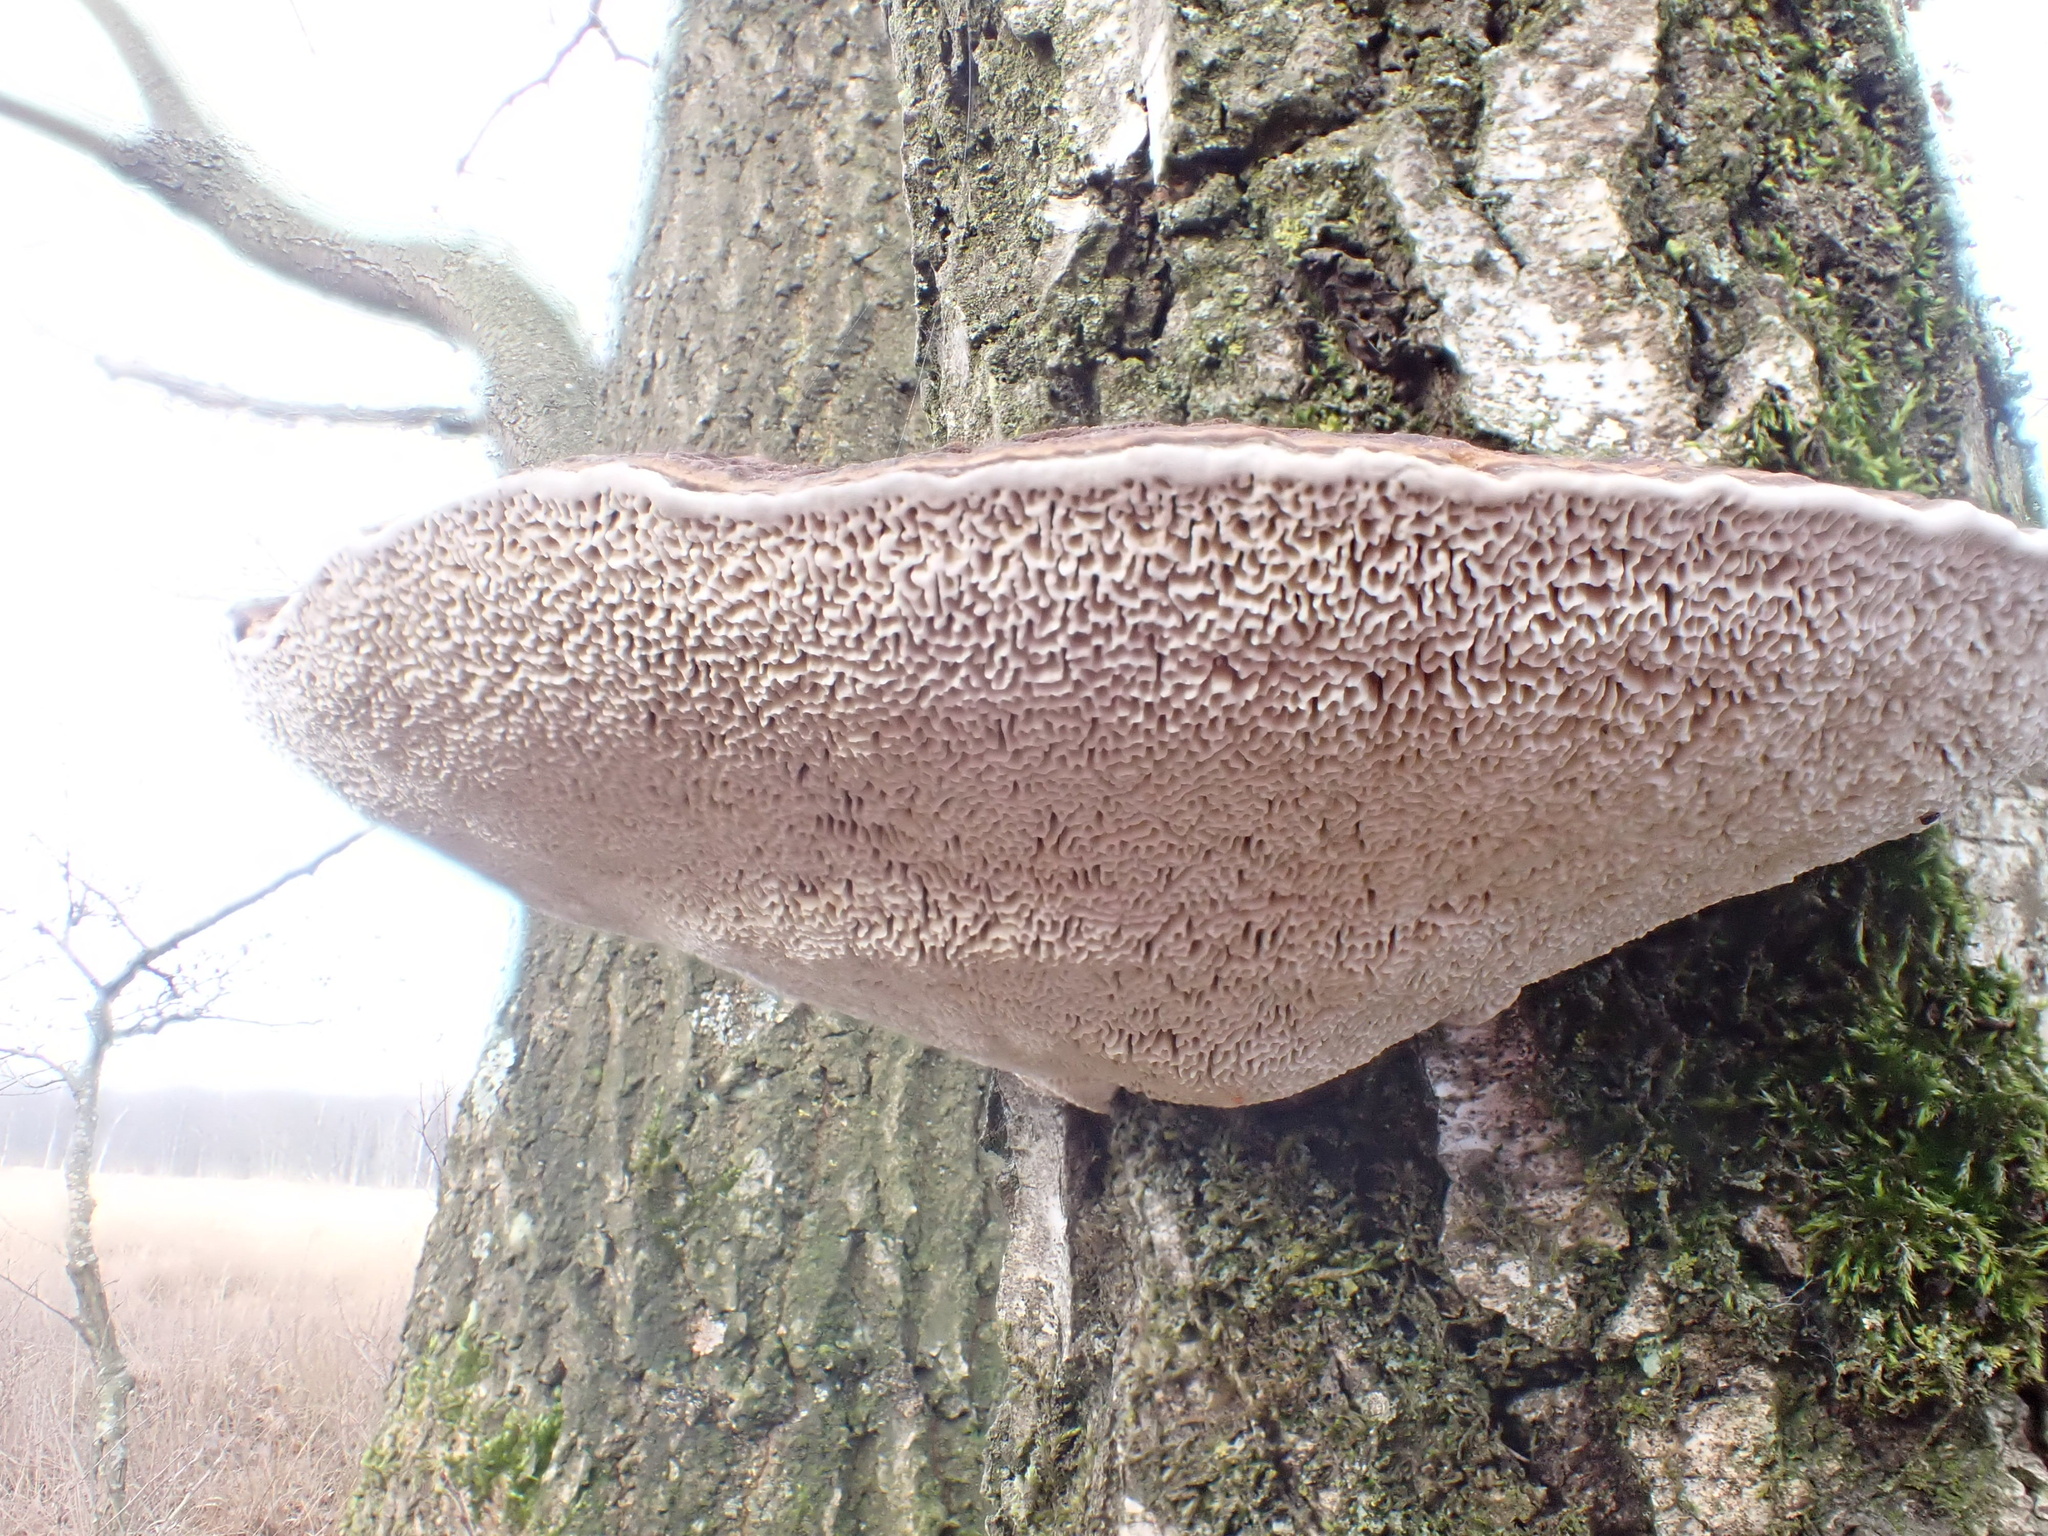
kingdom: Fungi
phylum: Basidiomycota
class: Agaricomycetes
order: Polyporales
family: Polyporaceae
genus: Daedaleopsis
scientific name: Daedaleopsis confragosa
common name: Blushing bracket
